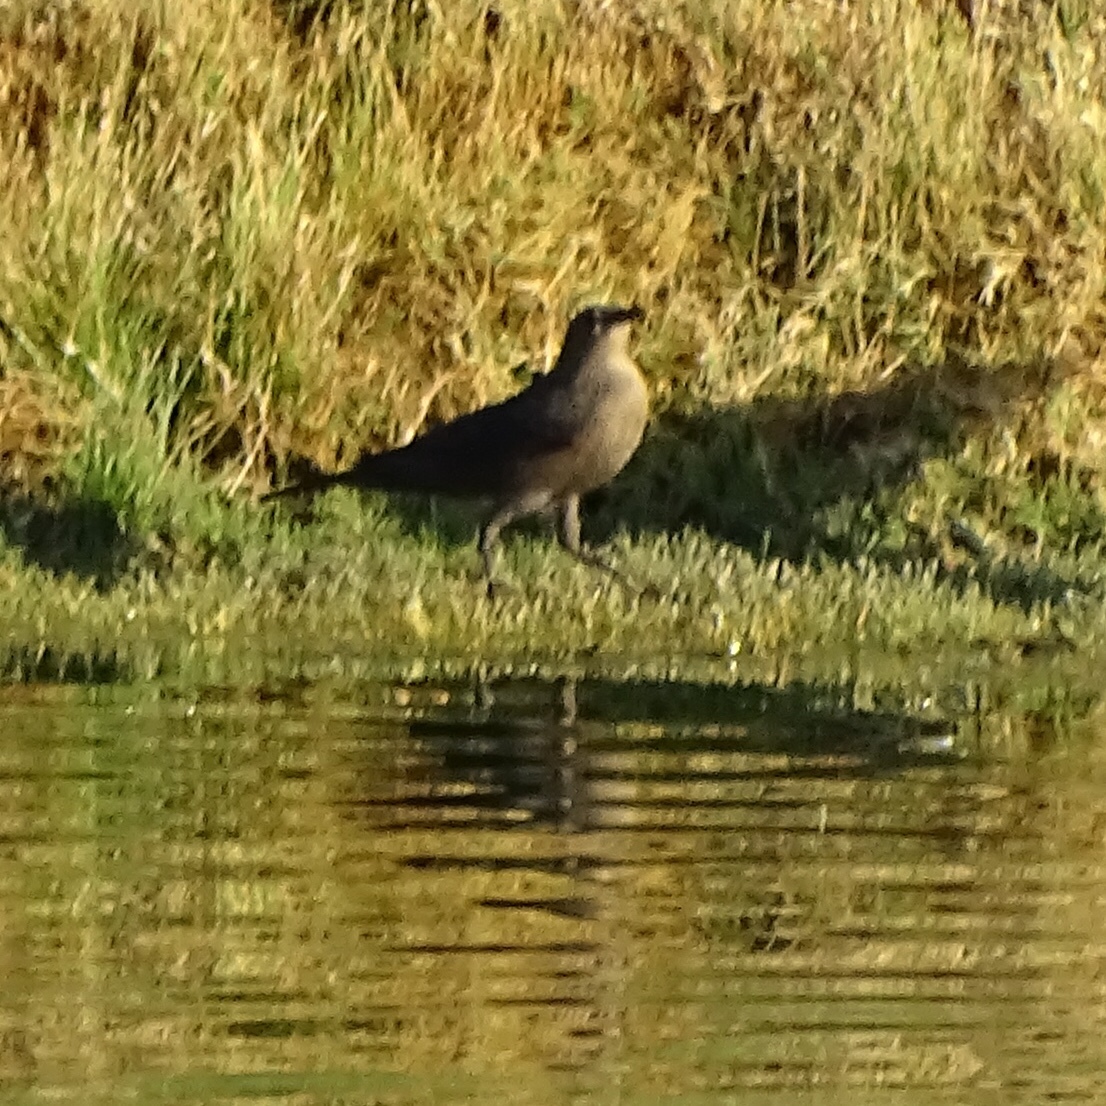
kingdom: Animalia
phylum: Chordata
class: Aves
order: Passeriformes
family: Icteridae
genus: Euphagus
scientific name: Euphagus cyanocephalus
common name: Brewer's blackbird
